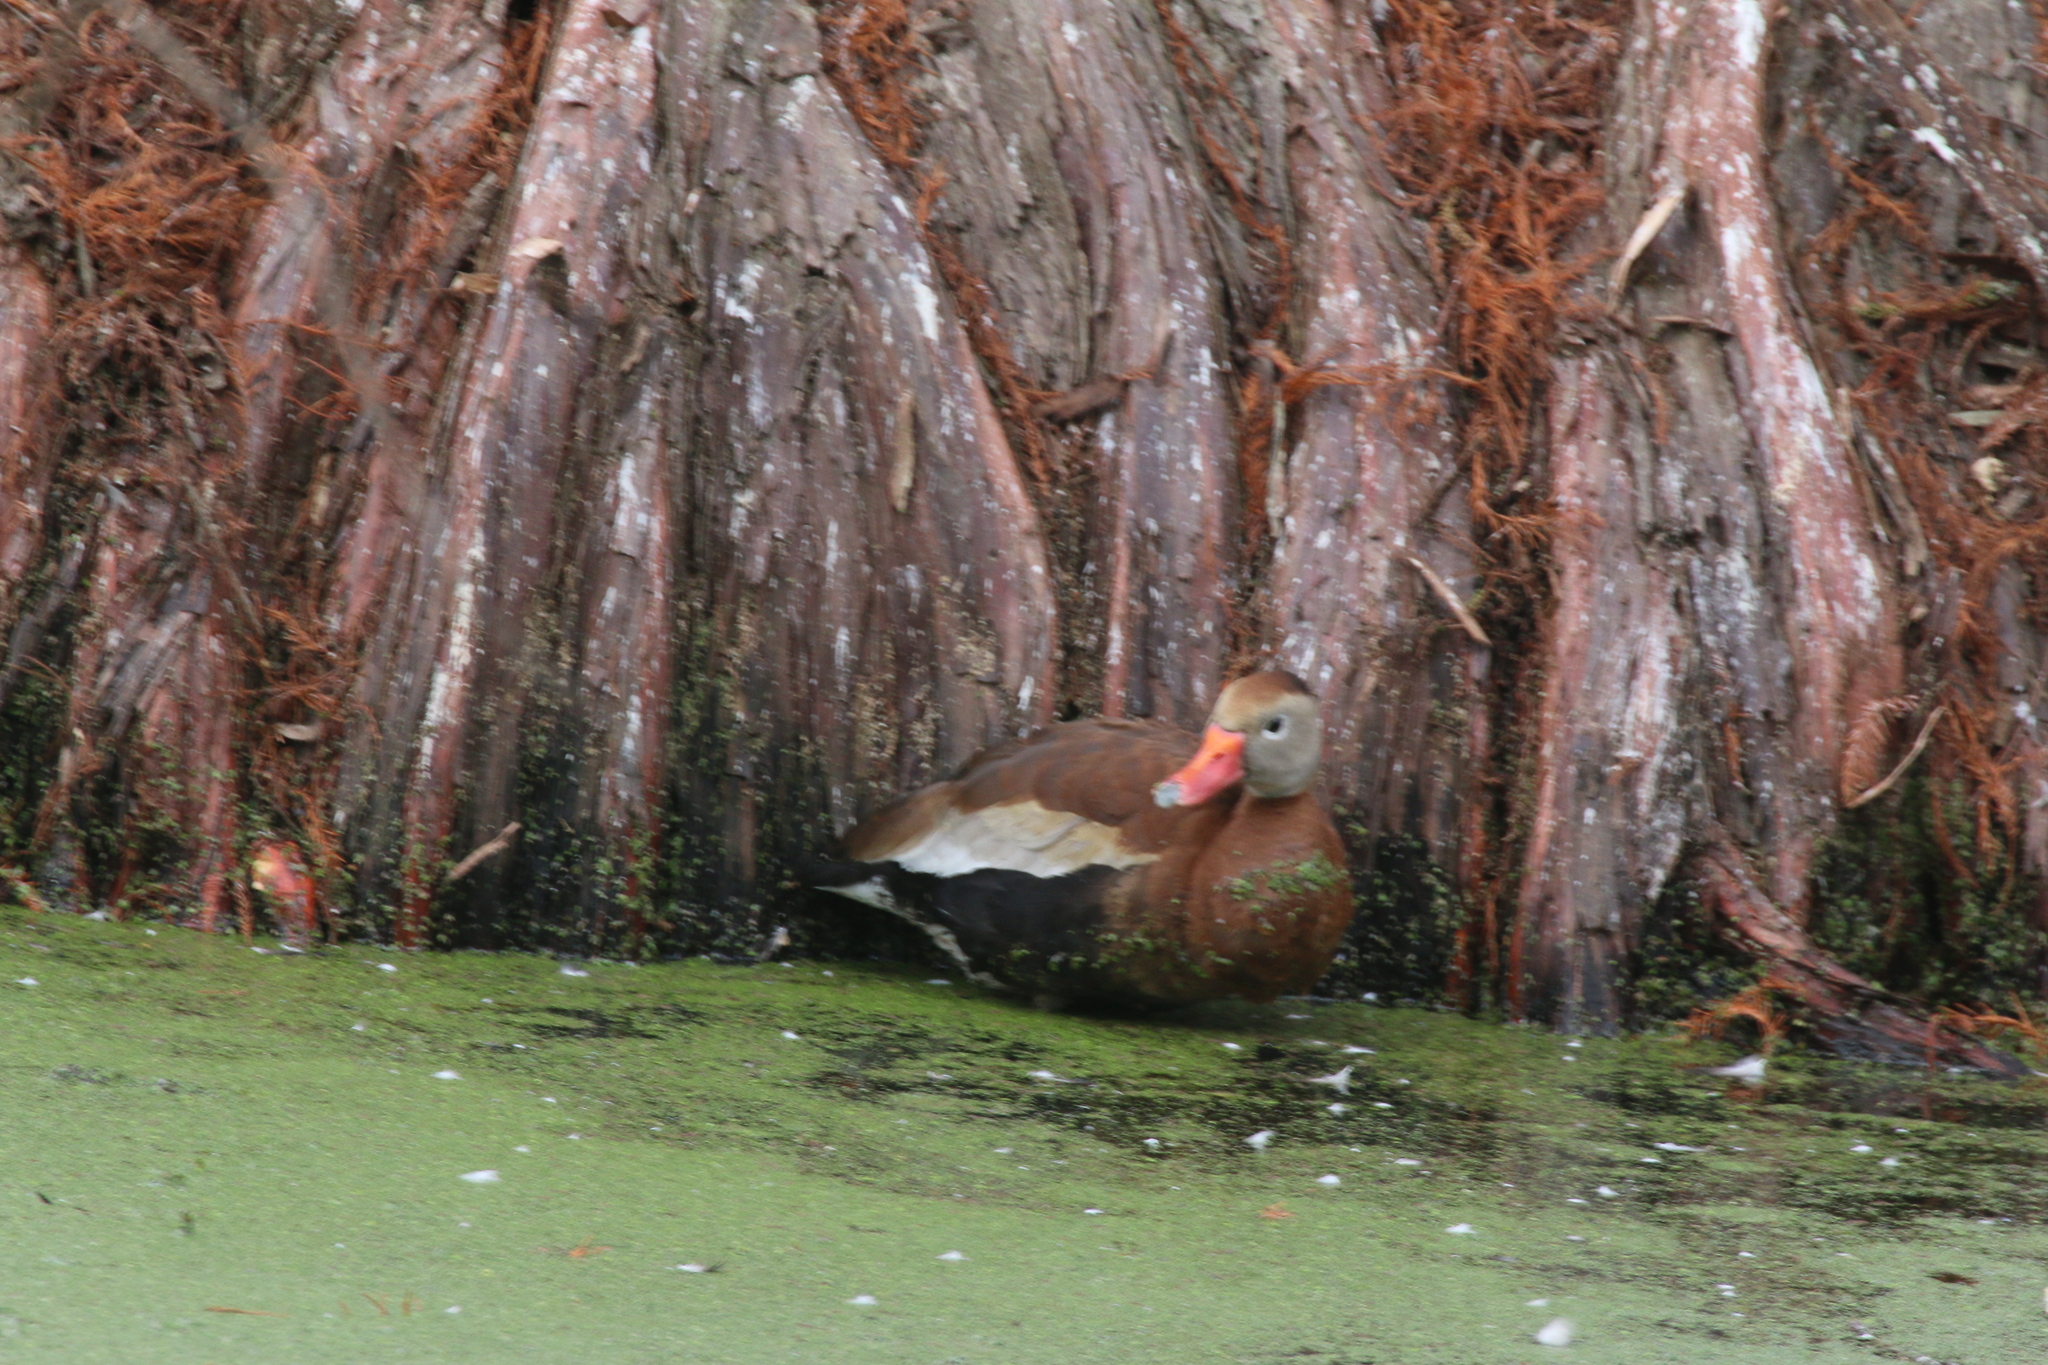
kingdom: Animalia
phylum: Chordata
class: Aves
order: Anseriformes
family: Anatidae
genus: Dendrocygna
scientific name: Dendrocygna autumnalis
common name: Black-bellied whistling duck
